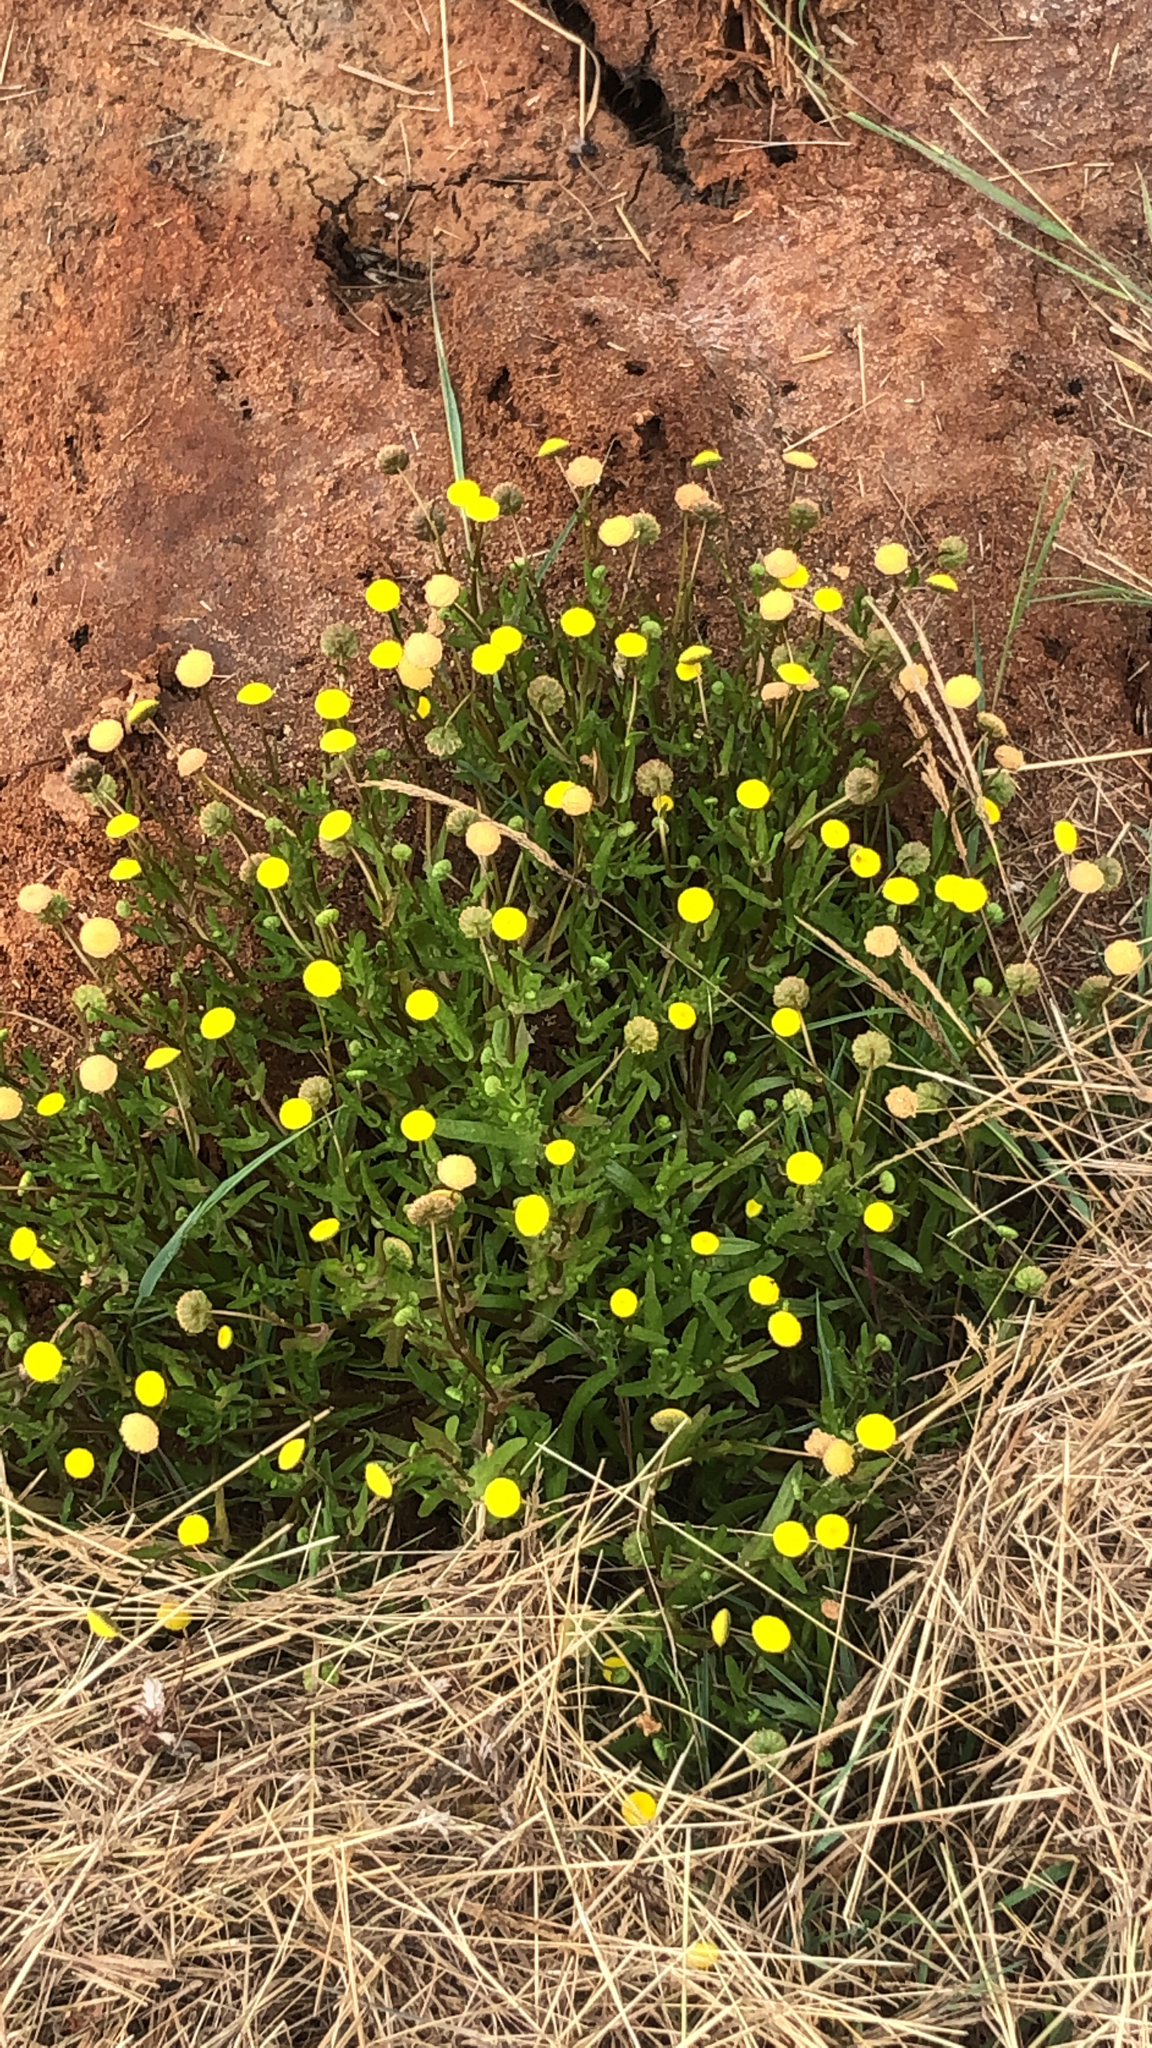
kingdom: Plantae
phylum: Tracheophyta
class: Magnoliopsida
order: Asterales
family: Asteraceae
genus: Cotula
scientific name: Cotula coronopifolia
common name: Buttonweed
